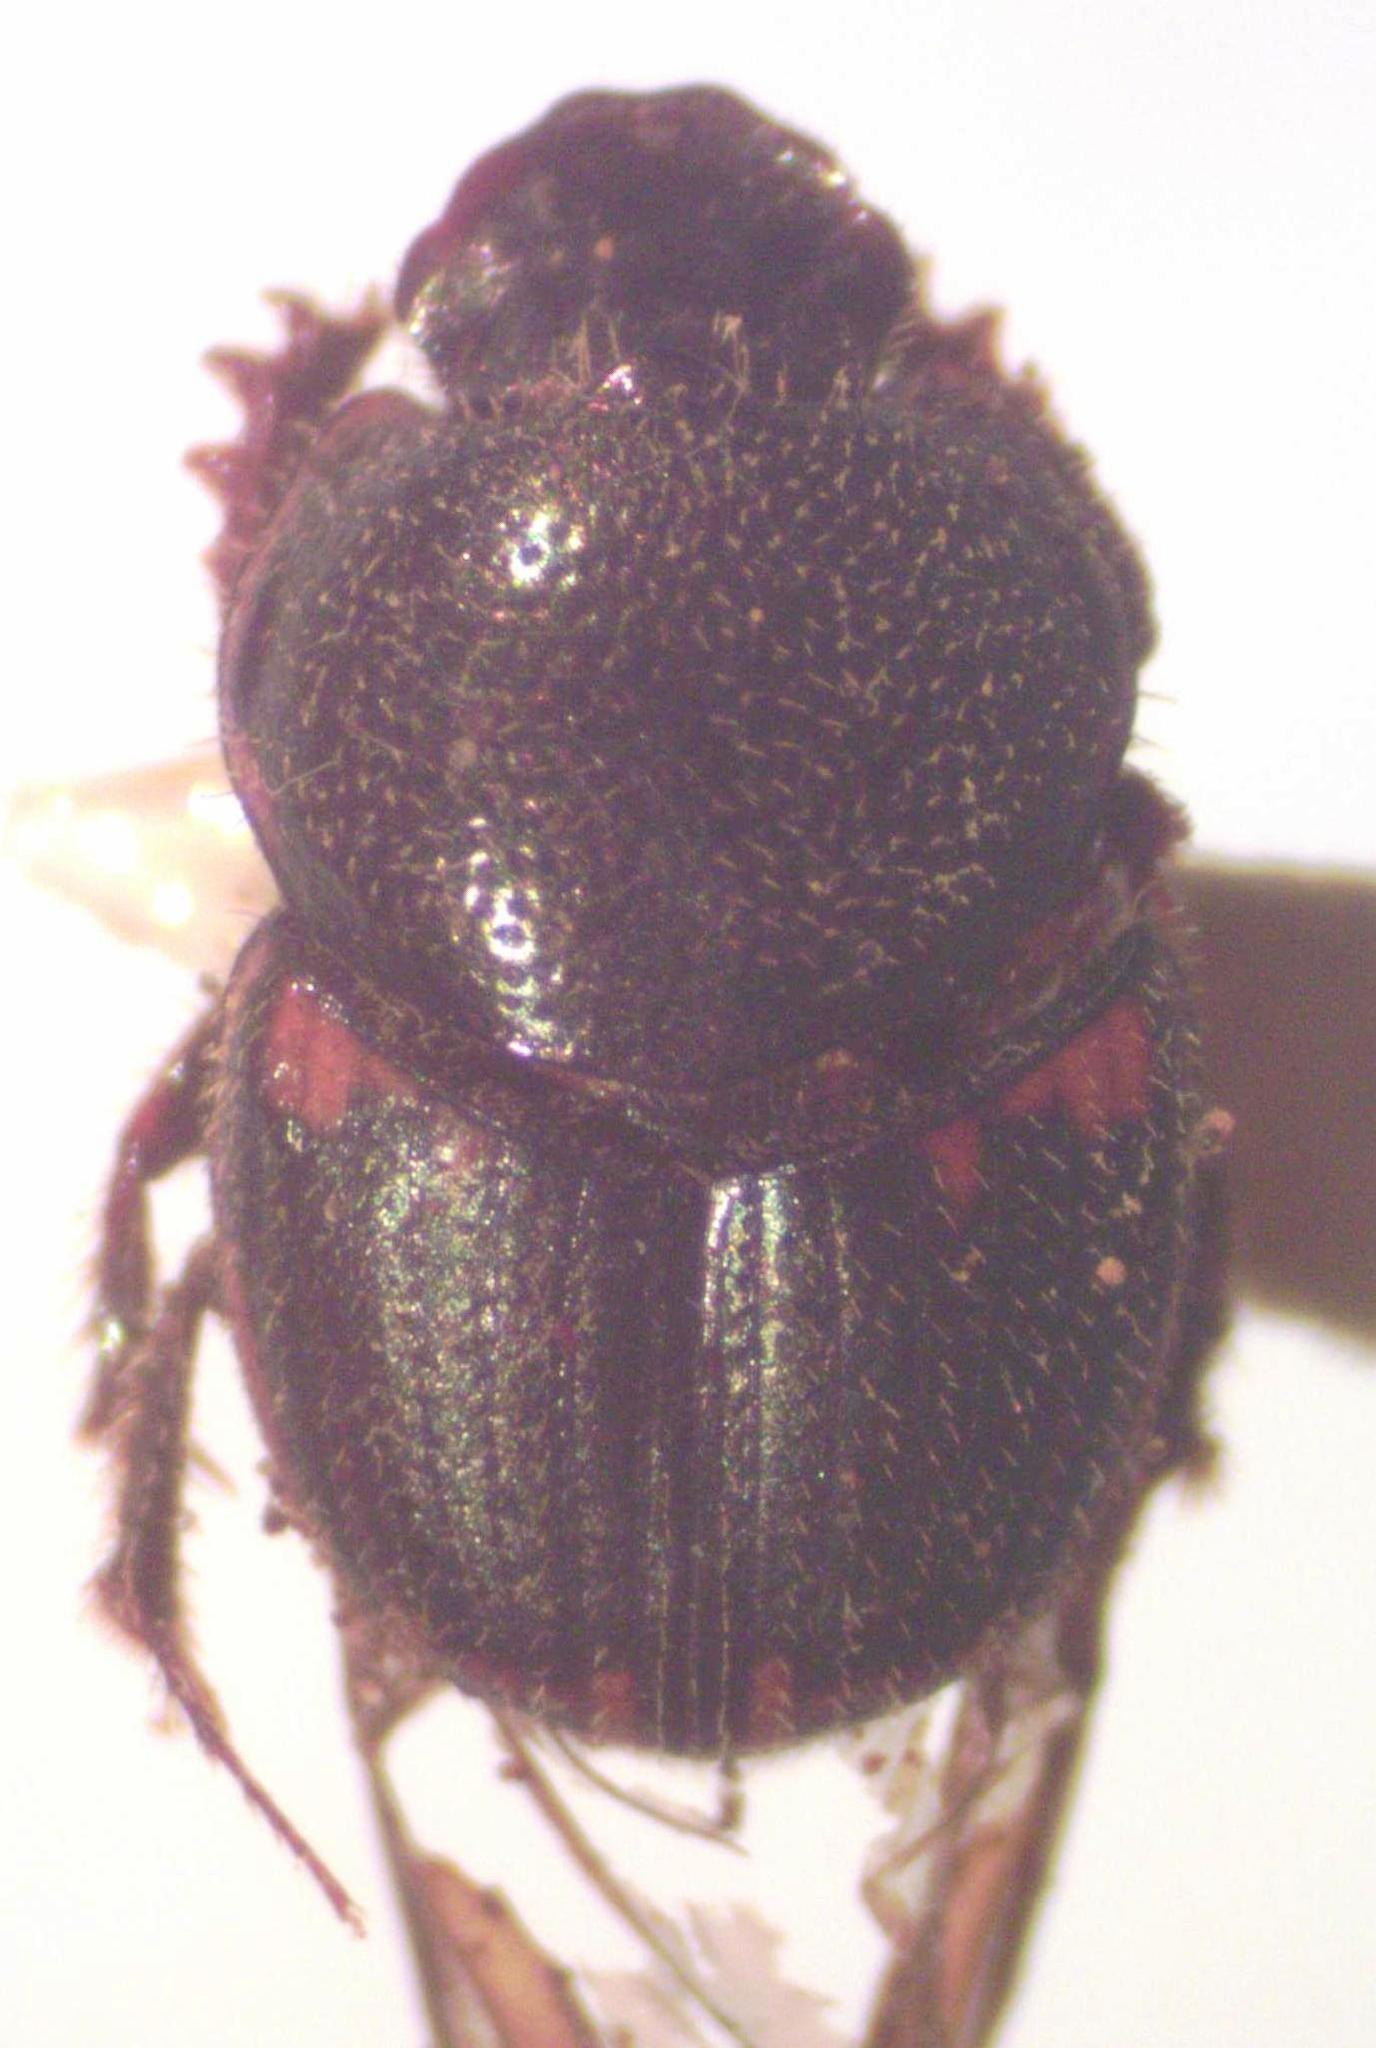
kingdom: Animalia
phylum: Arthropoda
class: Insecta
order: Coleoptera
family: Scarabaeidae
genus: Onthophagus
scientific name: Onthophagus landolti
